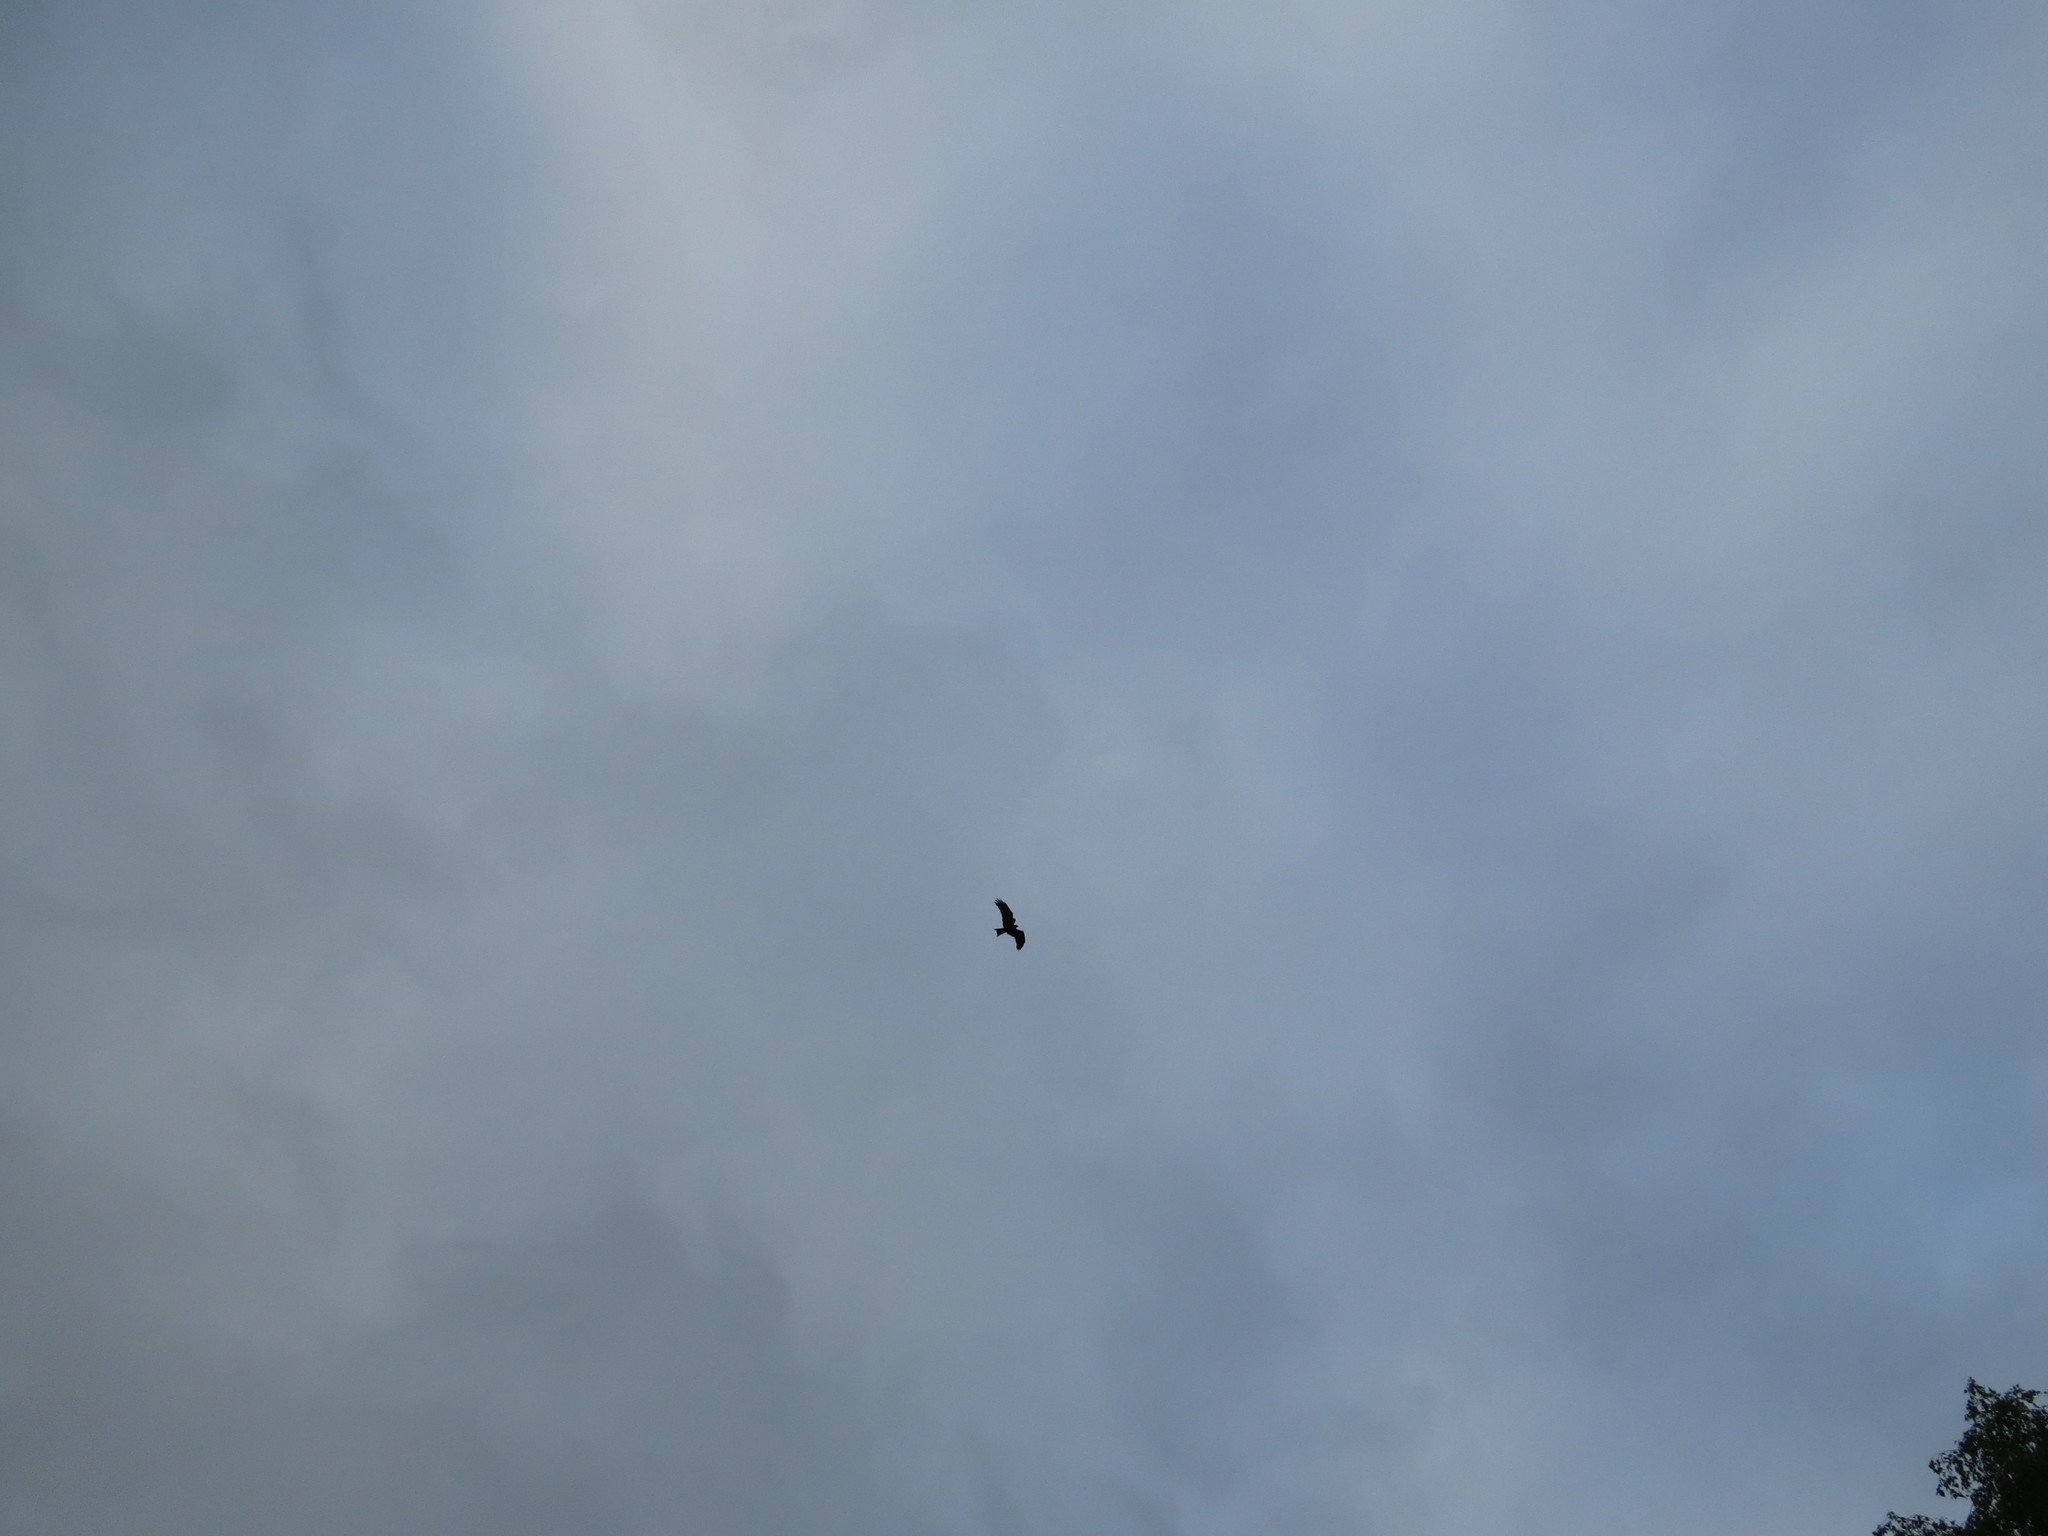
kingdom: Animalia
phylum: Chordata
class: Aves
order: Accipitriformes
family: Accipitridae
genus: Milvus
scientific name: Milvus migrans
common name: Black kite
